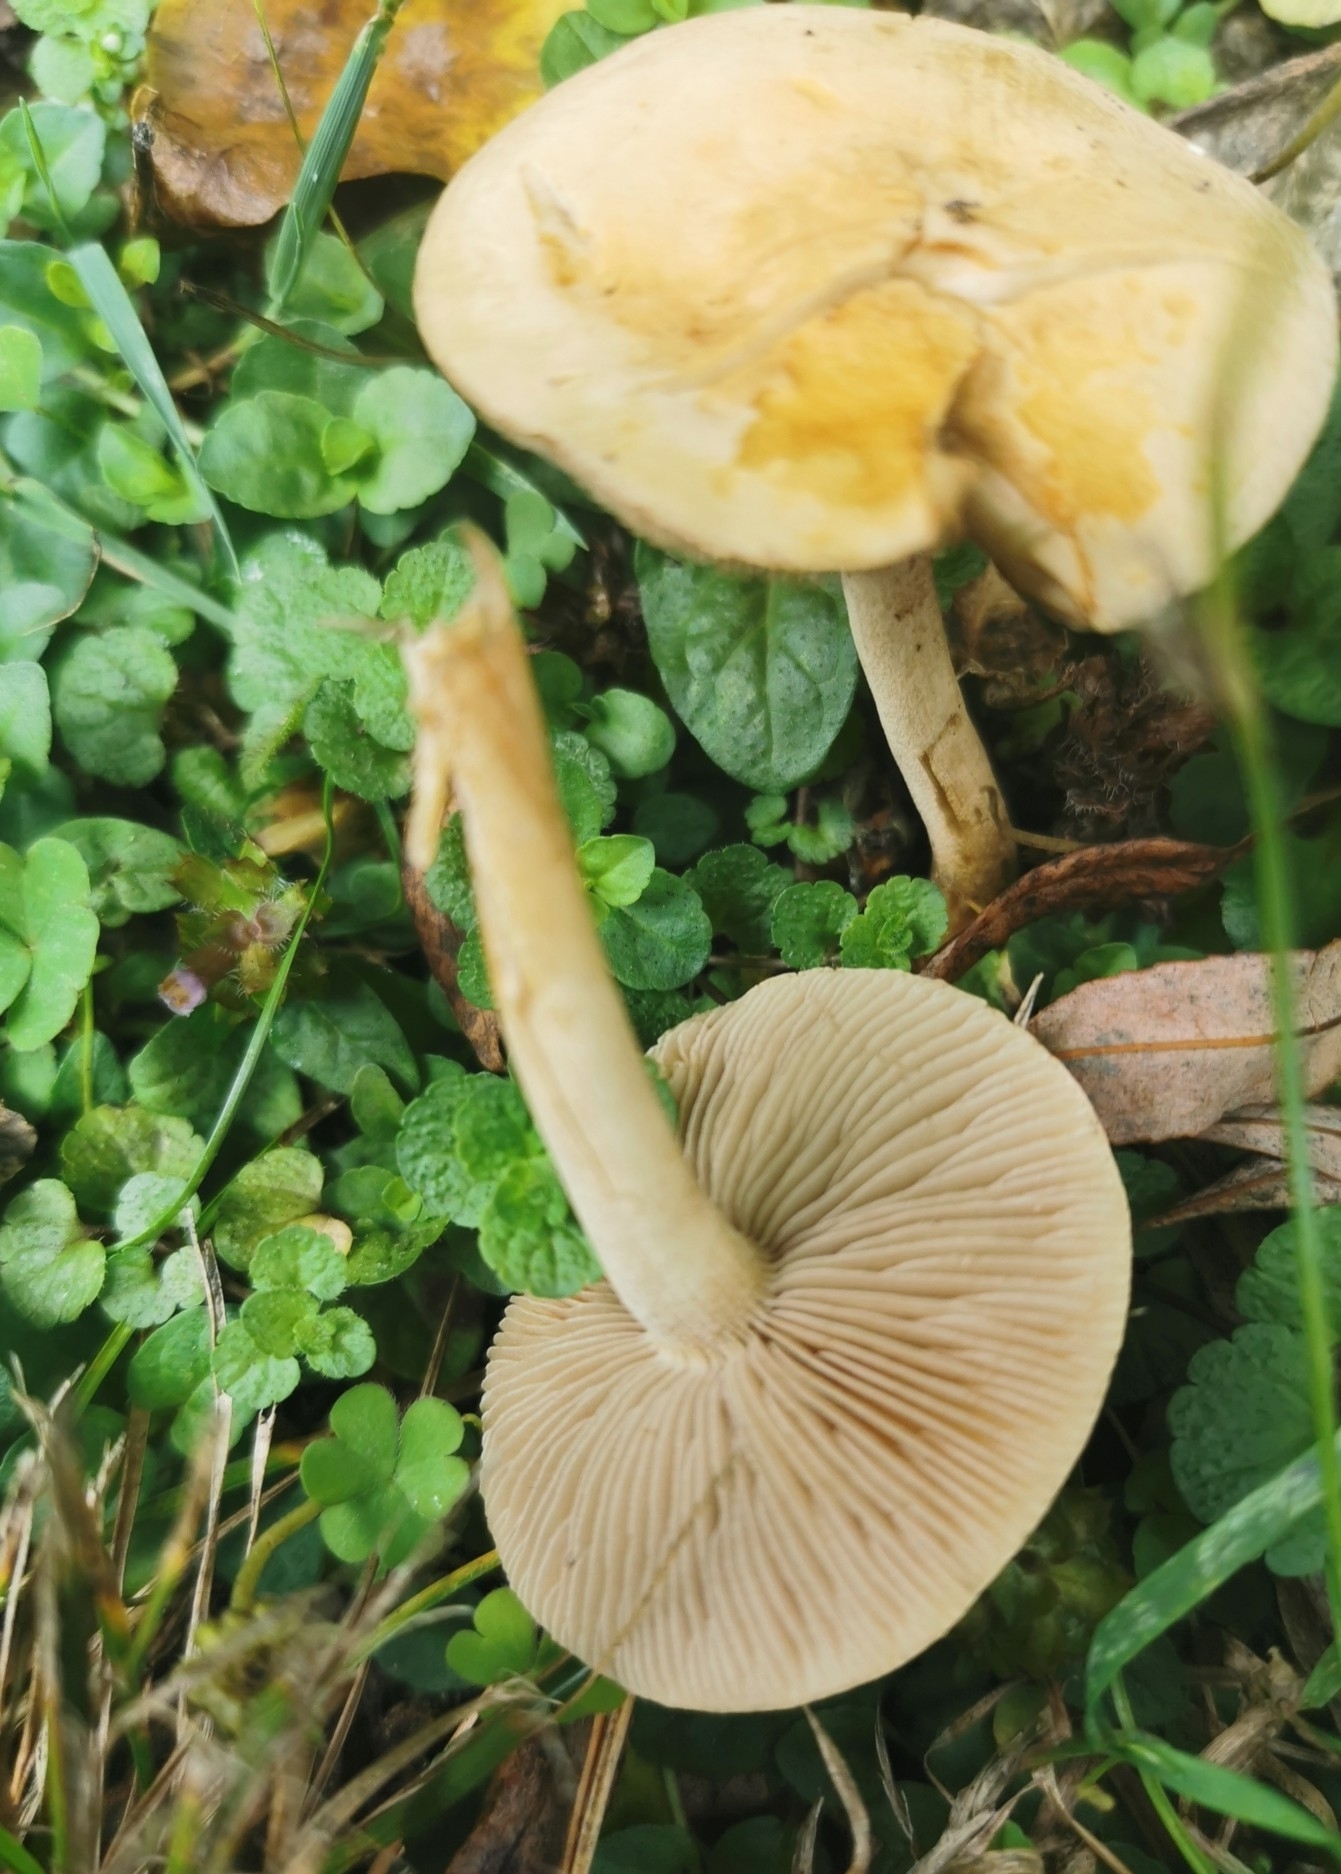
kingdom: Fungi
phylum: Basidiomycota
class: Agaricomycetes
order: Agaricales
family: Strophariaceae
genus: Agrocybe
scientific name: Agrocybe putaminum
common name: Mulch fieldcap
